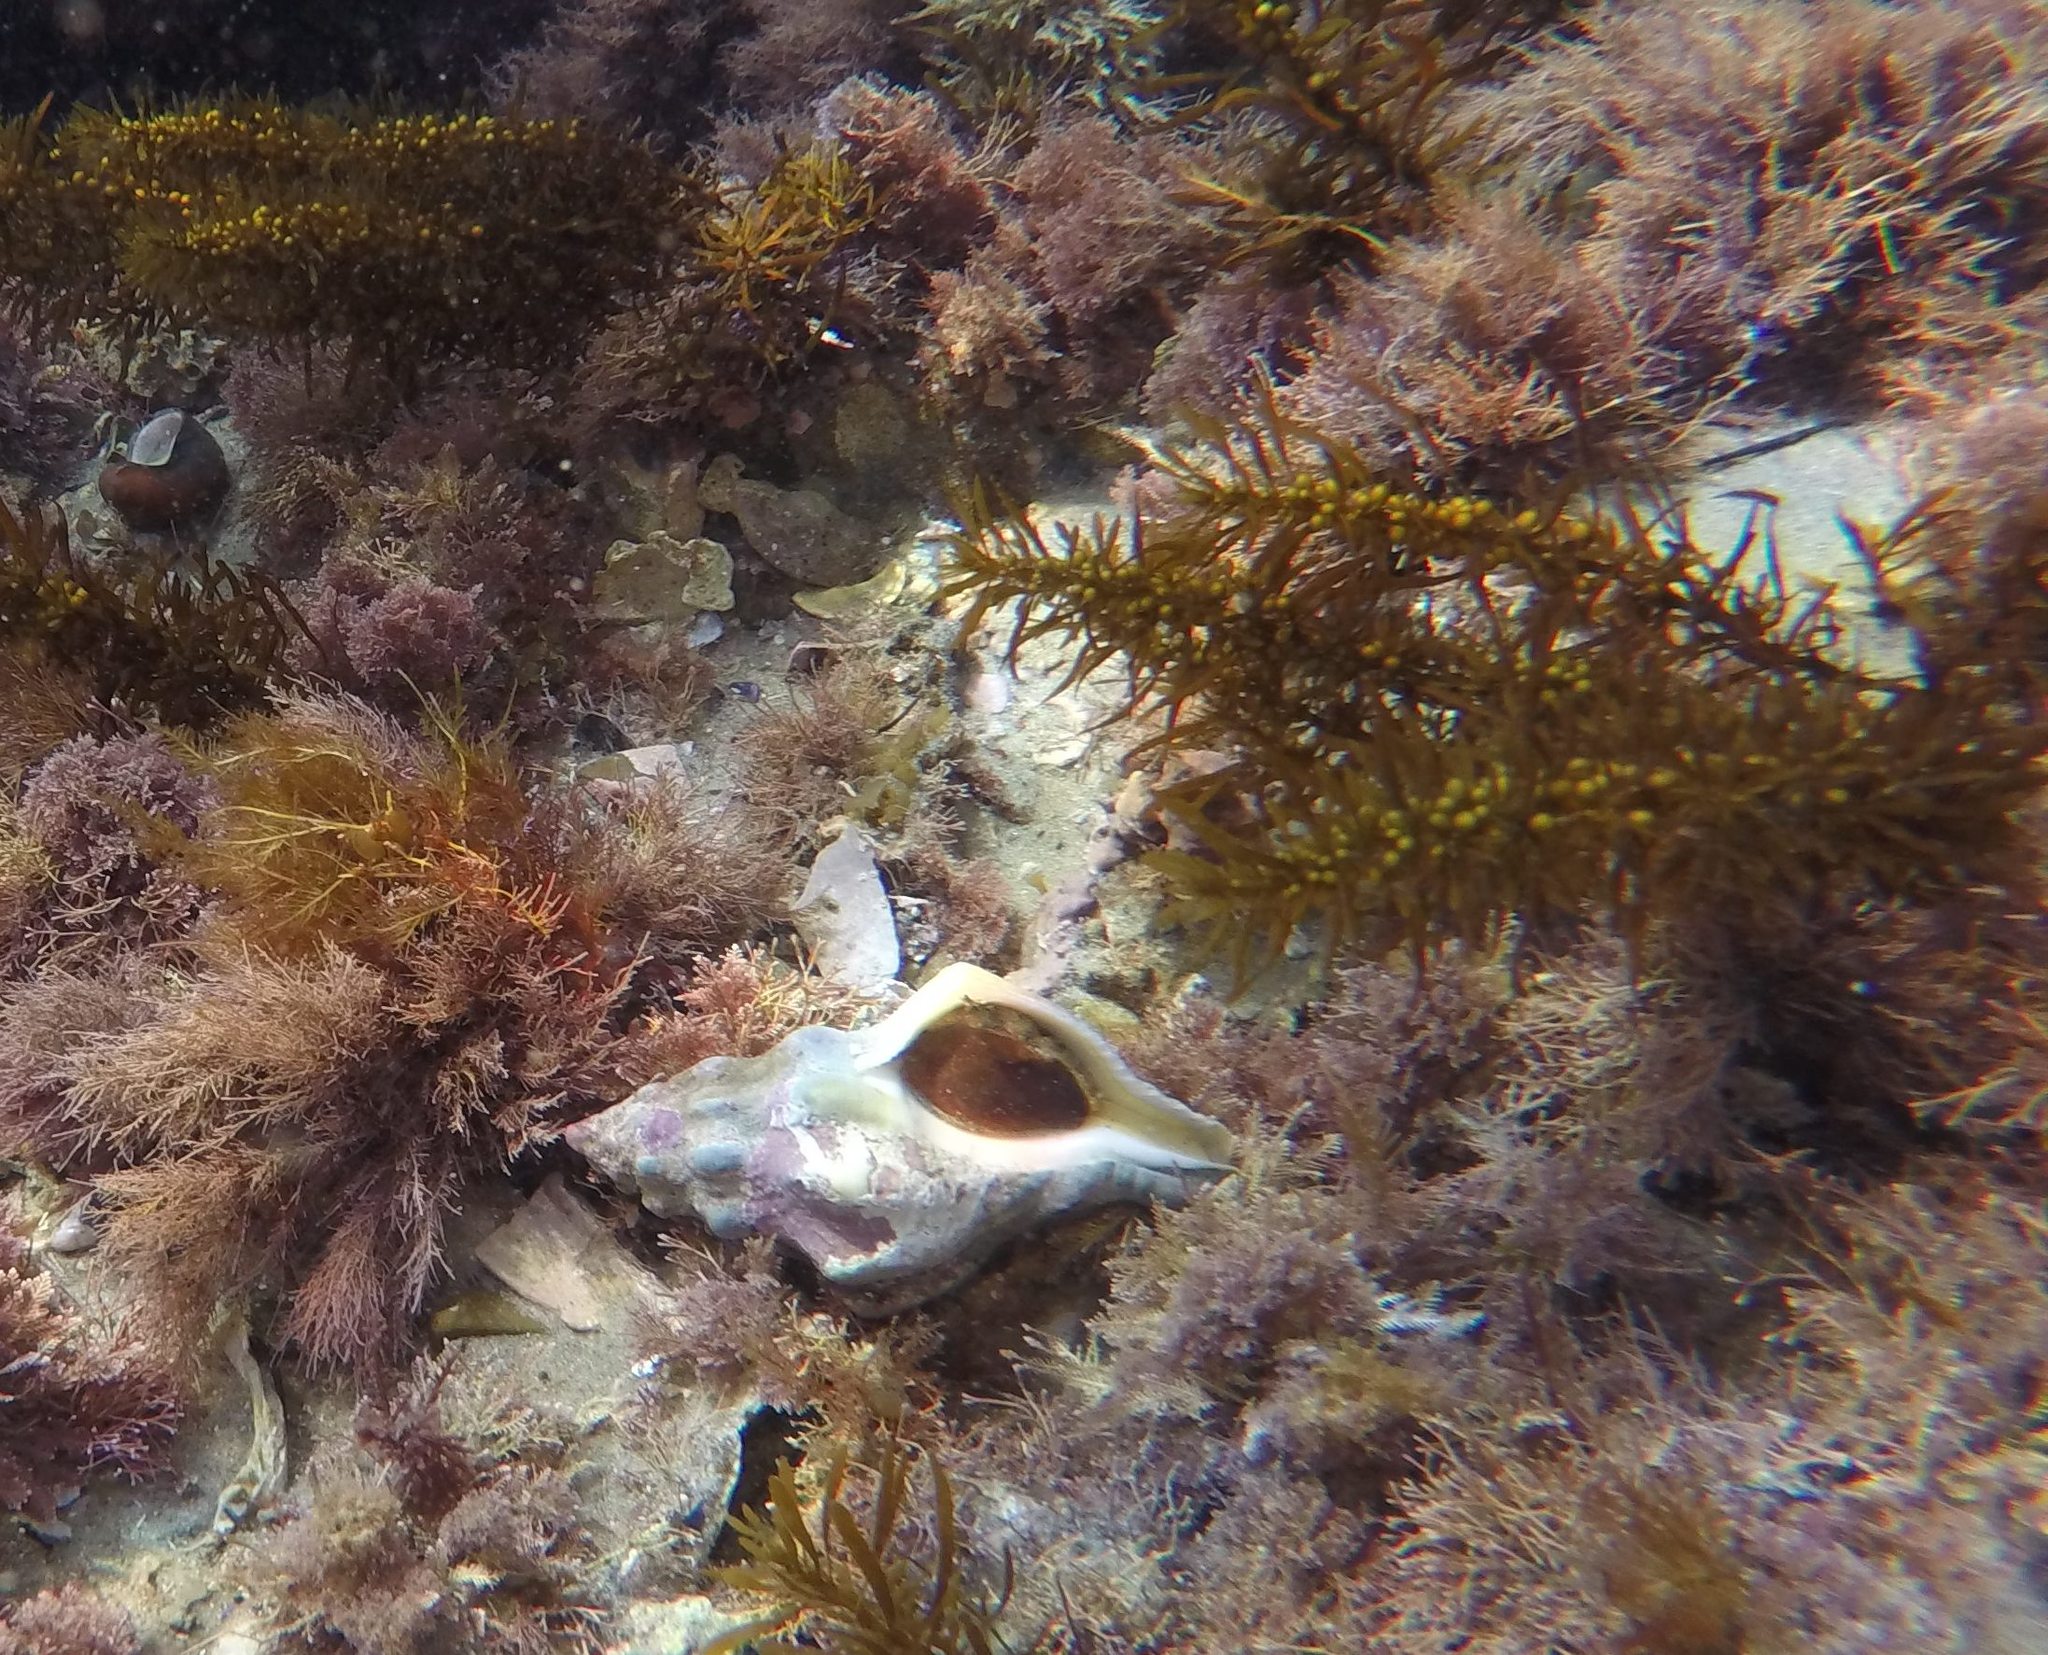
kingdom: Animalia
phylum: Mollusca
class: Gastropoda
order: Neogastropoda
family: Austrosiphonidae
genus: Kelletia
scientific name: Kelletia kelletii
